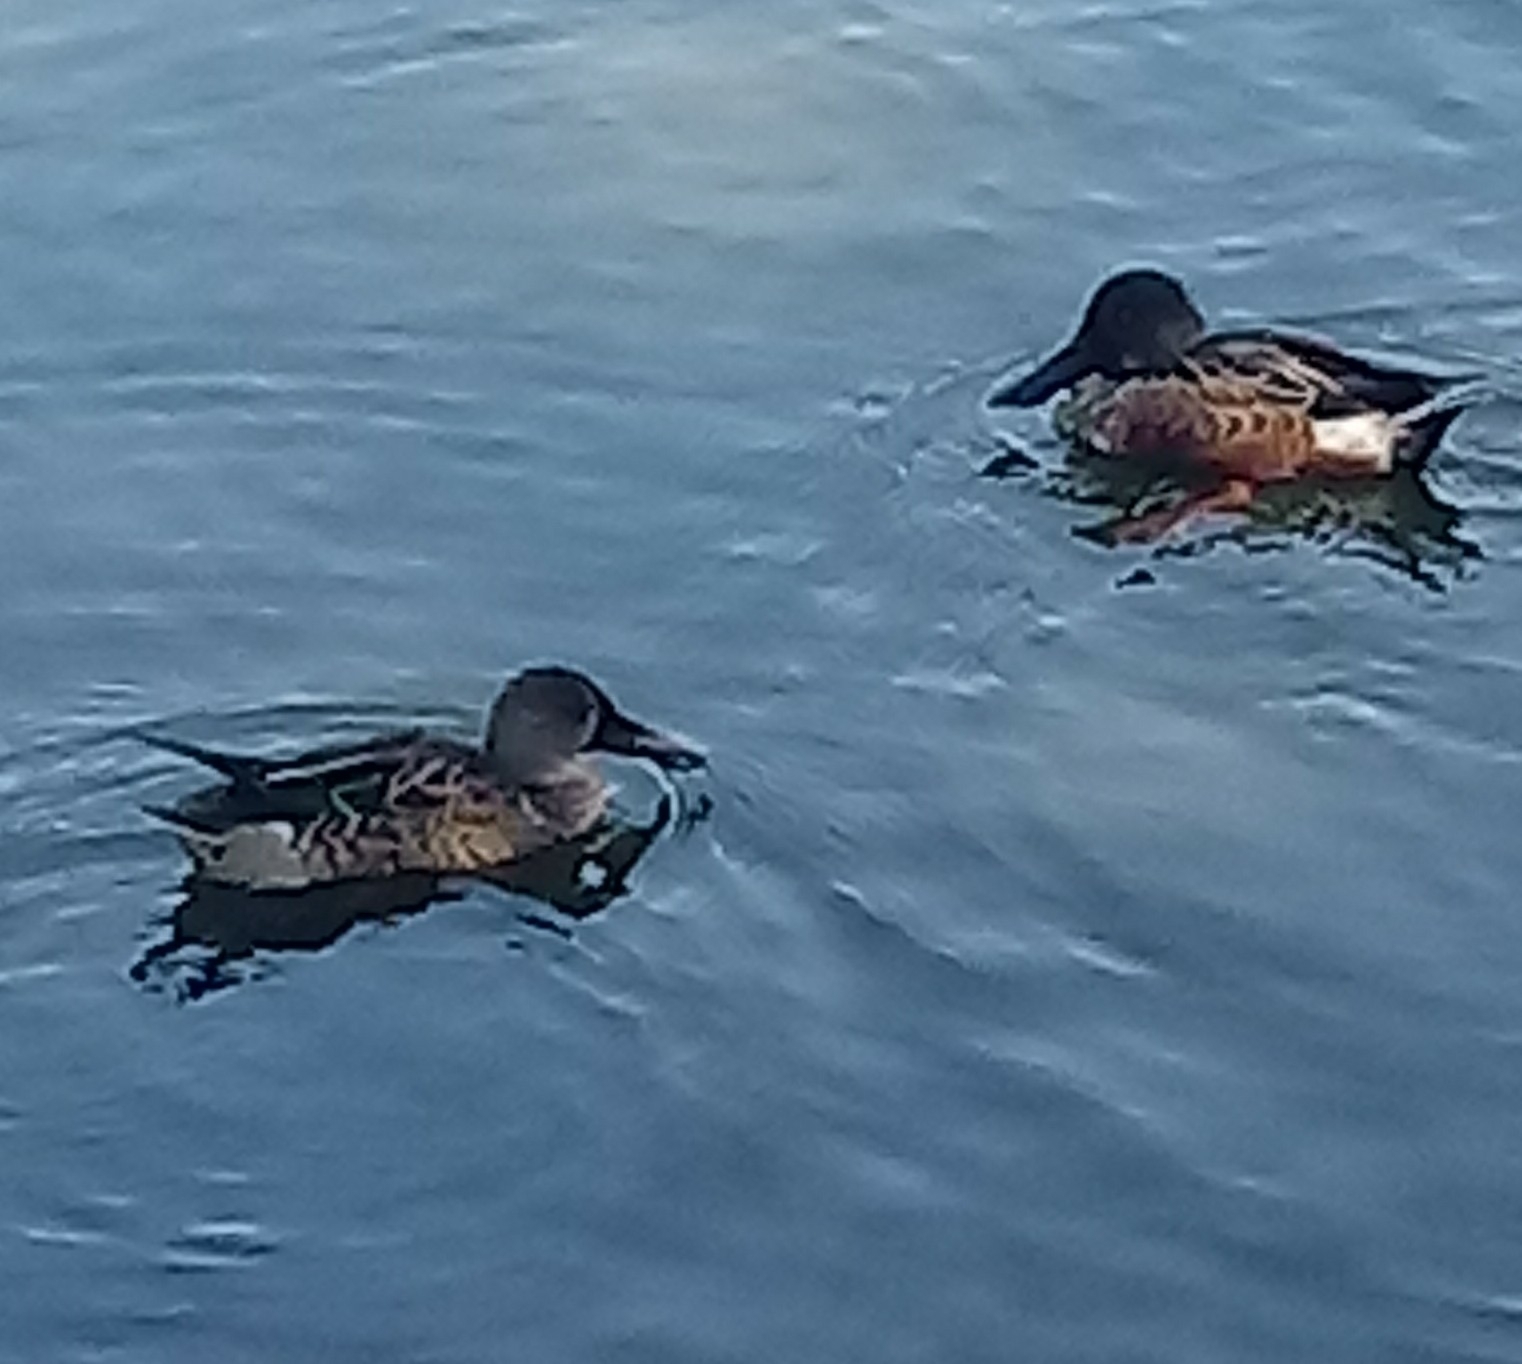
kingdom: Animalia
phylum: Chordata
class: Aves
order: Anseriformes
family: Anatidae
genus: Spatula
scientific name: Spatula clypeata
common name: Northern shoveler
